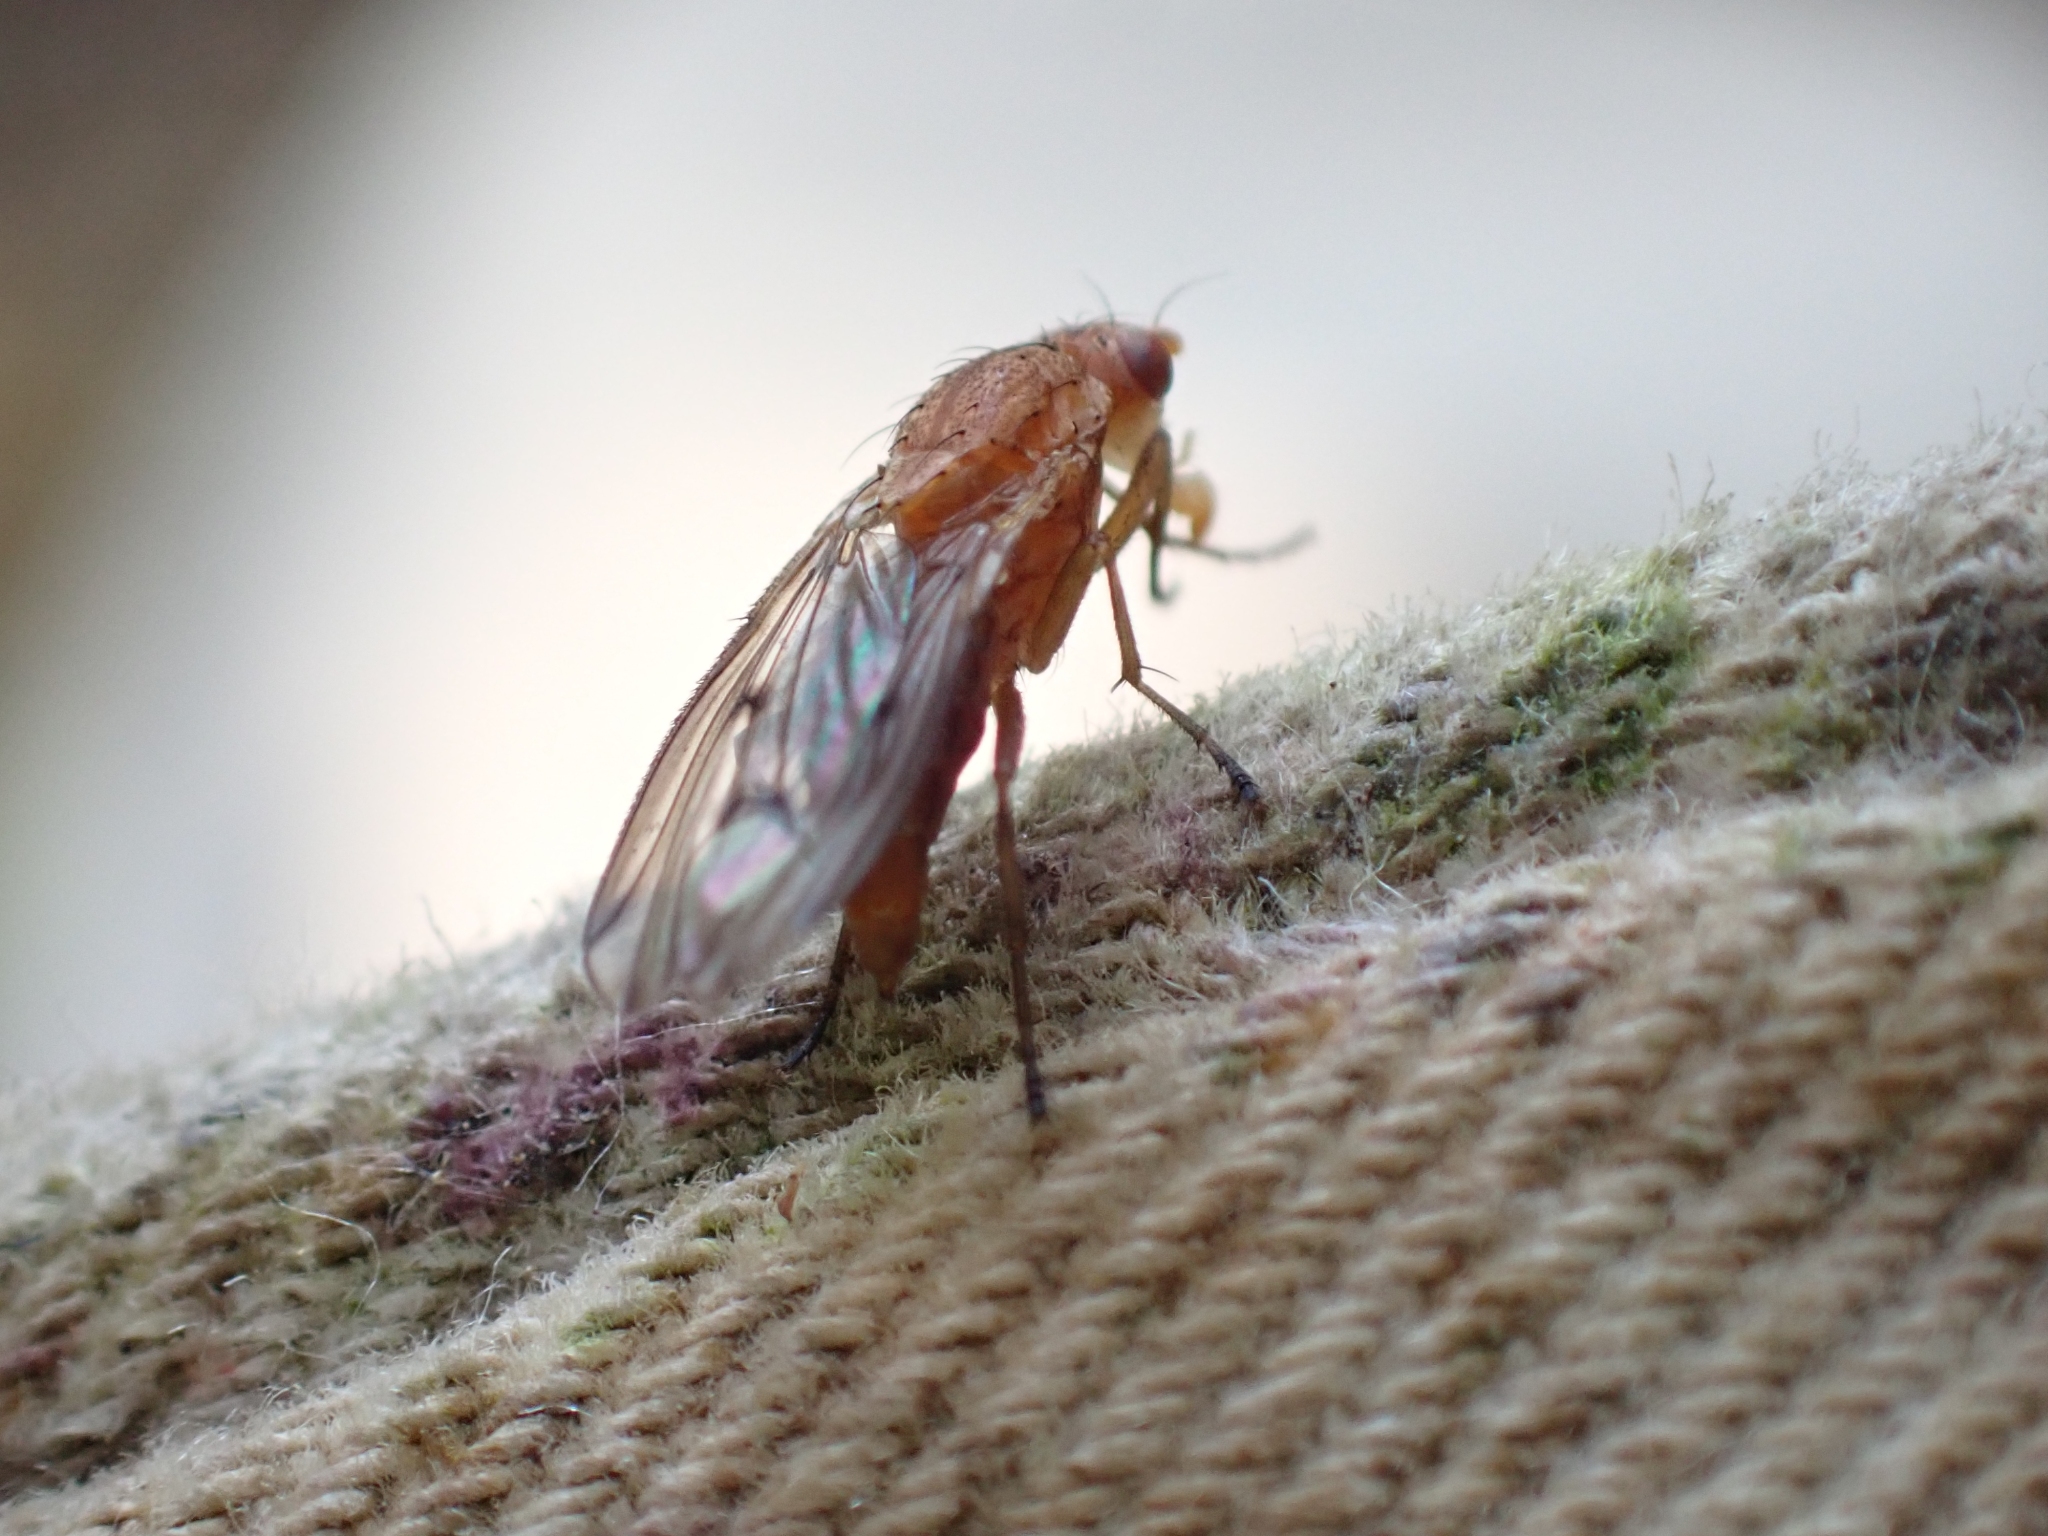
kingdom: Animalia
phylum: Arthropoda
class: Insecta
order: Diptera
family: Heleomyzidae
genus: Suillia
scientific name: Suillia nemorum
